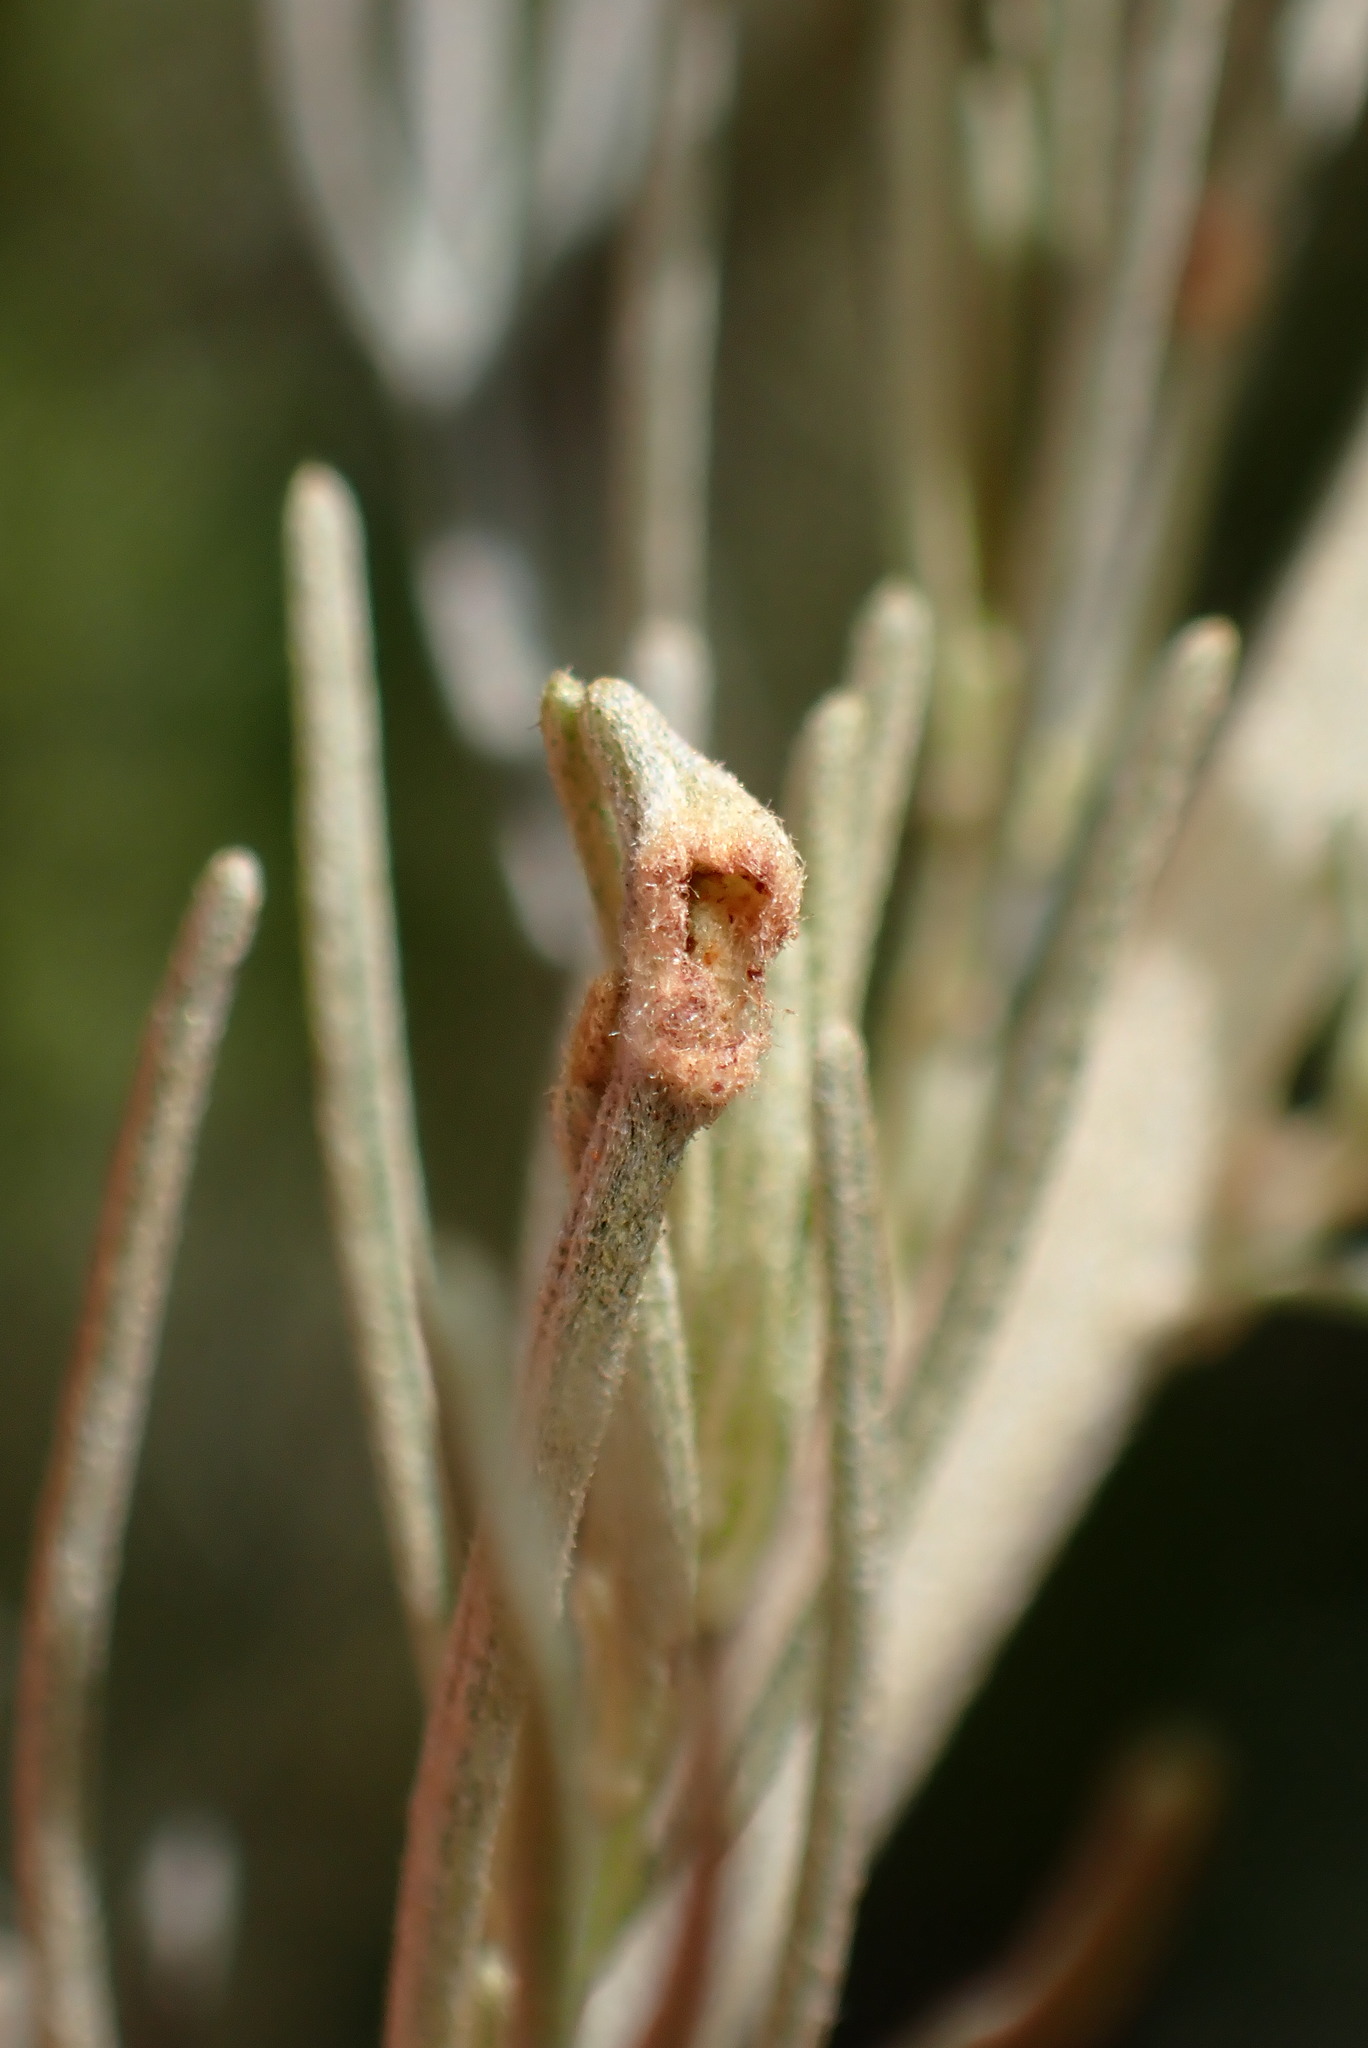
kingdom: Animalia
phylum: Arthropoda
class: Arachnida
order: Trombidiformes
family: Eriophyidae
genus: Aceria
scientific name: Aceria
